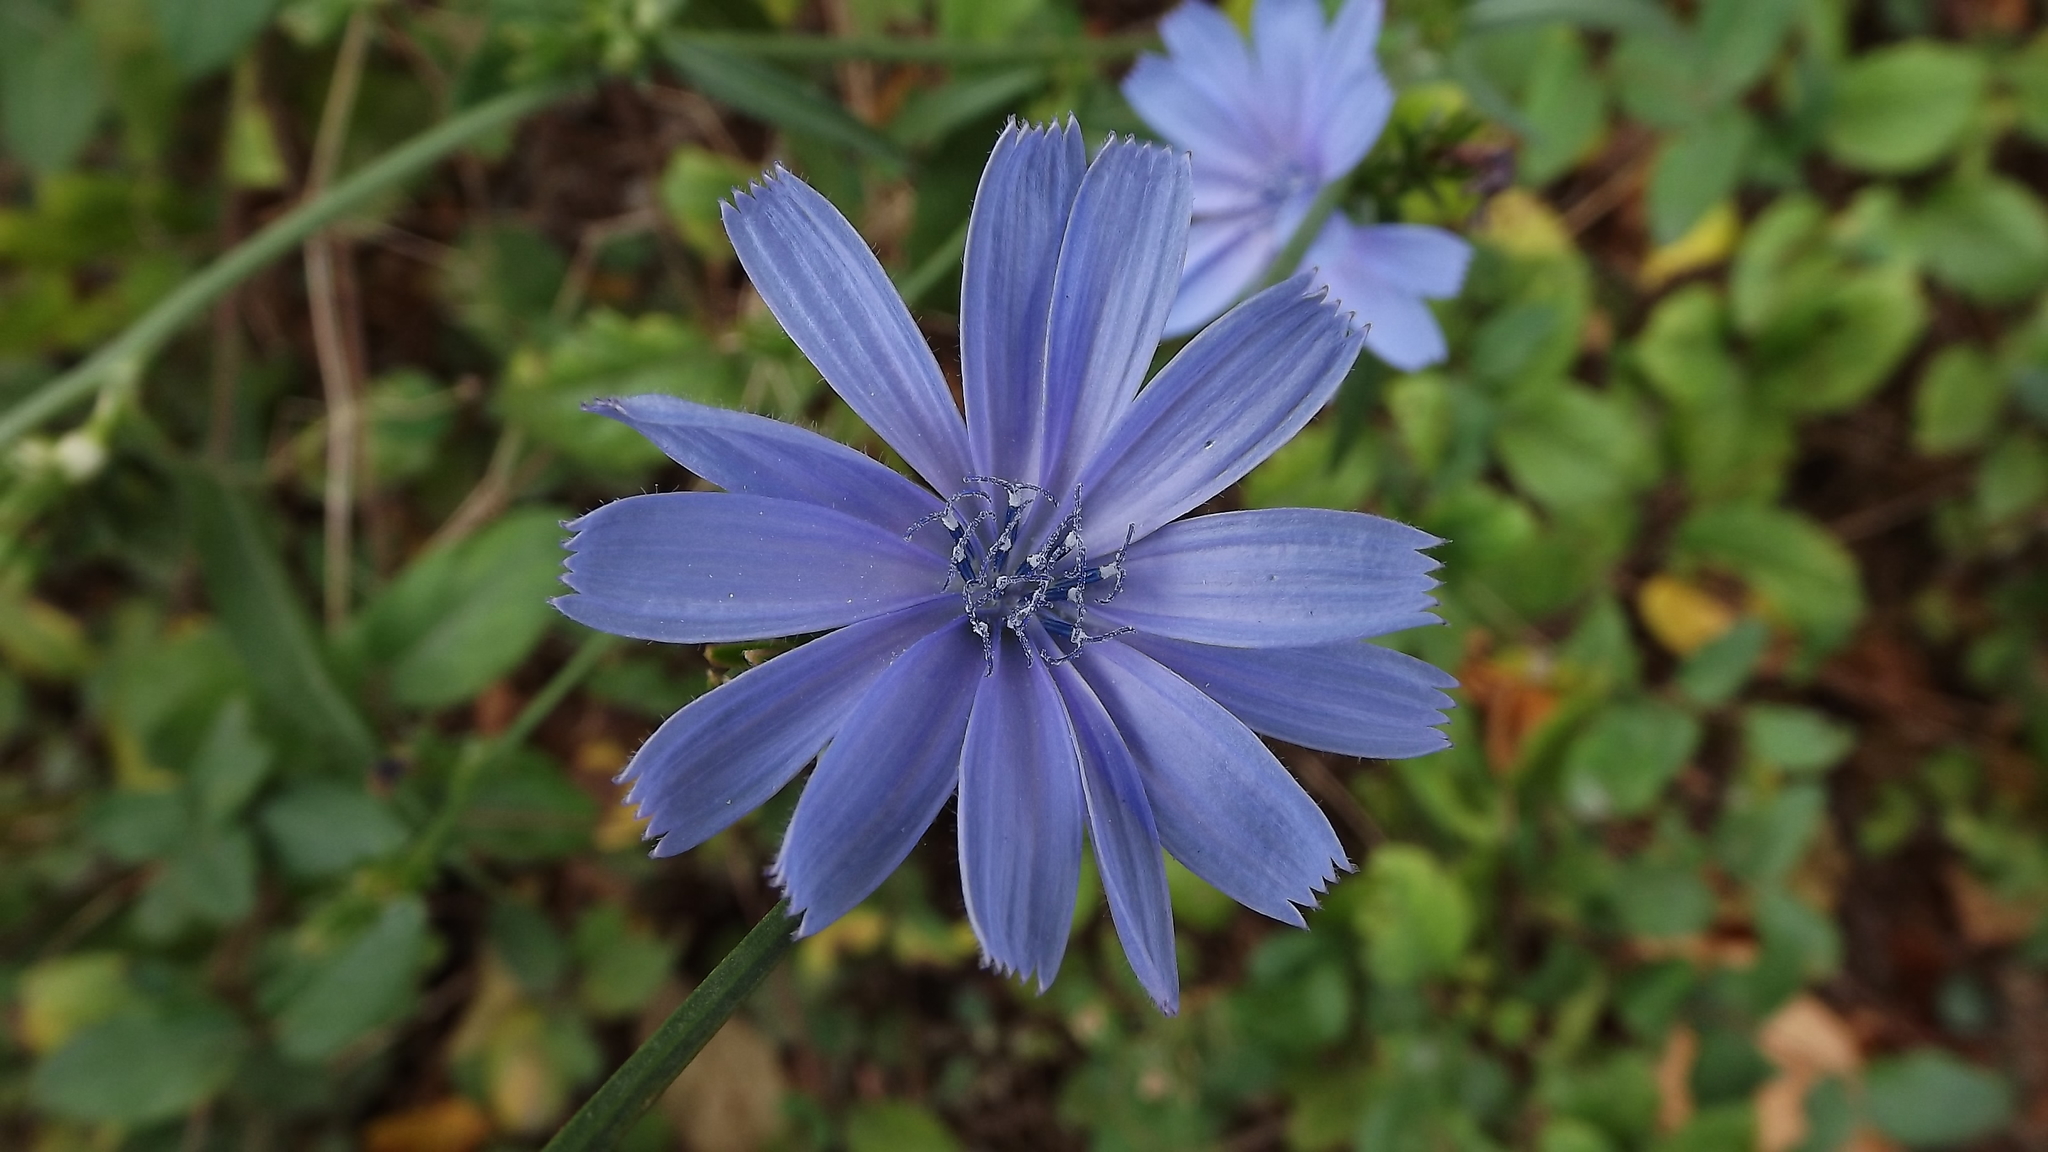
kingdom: Plantae
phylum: Tracheophyta
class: Magnoliopsida
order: Asterales
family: Asteraceae
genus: Cichorium
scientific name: Cichorium intybus
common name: Chicory
